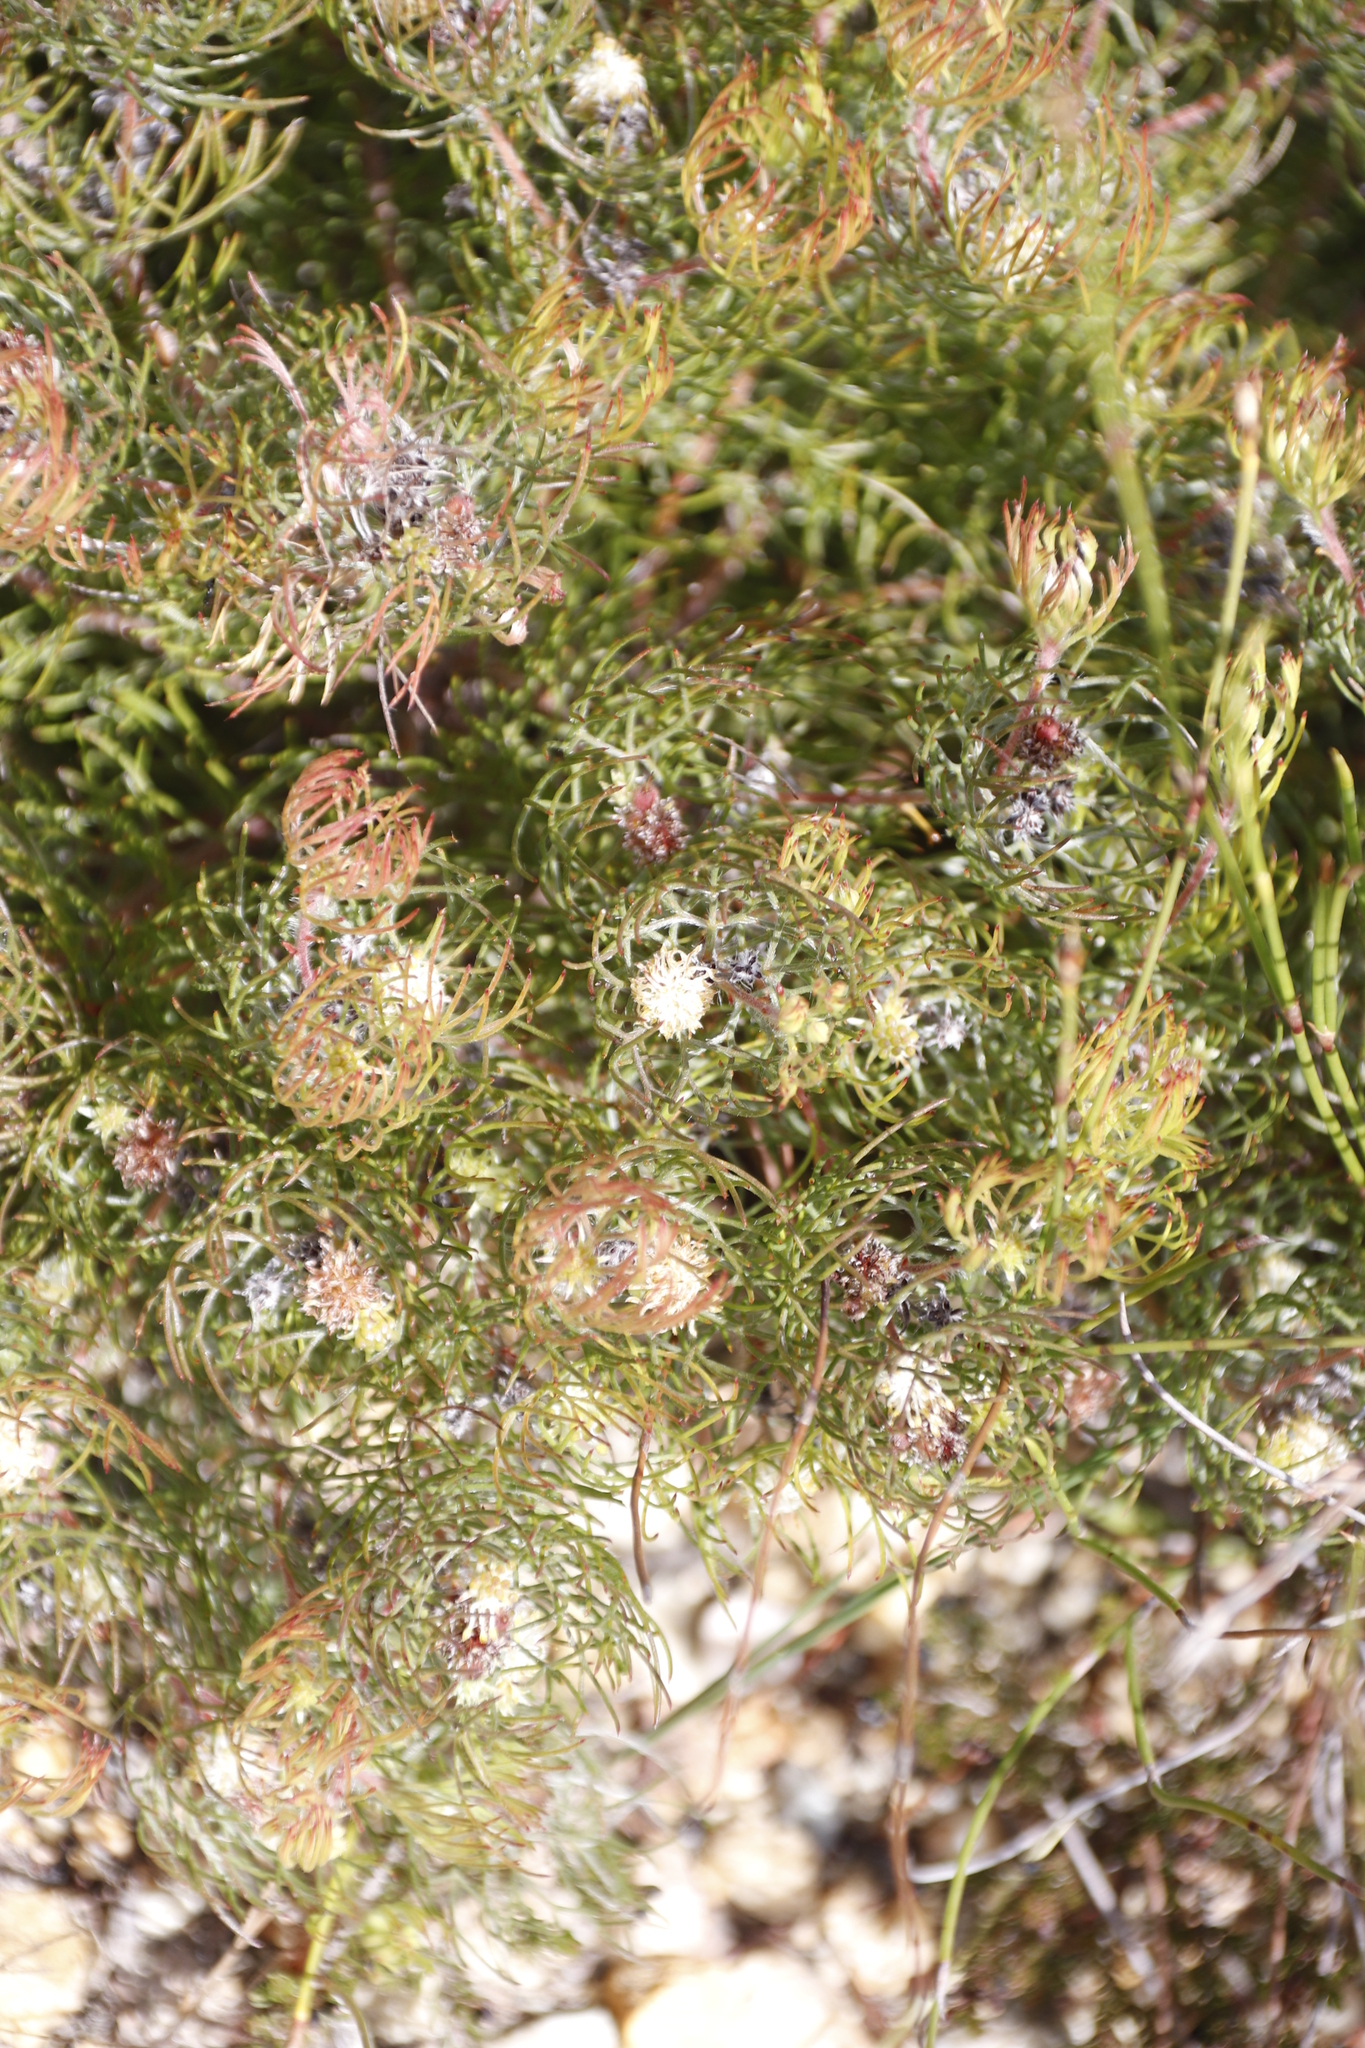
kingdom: Plantae
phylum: Tracheophyta
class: Magnoliopsida
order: Proteales
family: Proteaceae
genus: Serruria
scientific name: Serruria inconspicua
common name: Cryptic spiderhead
